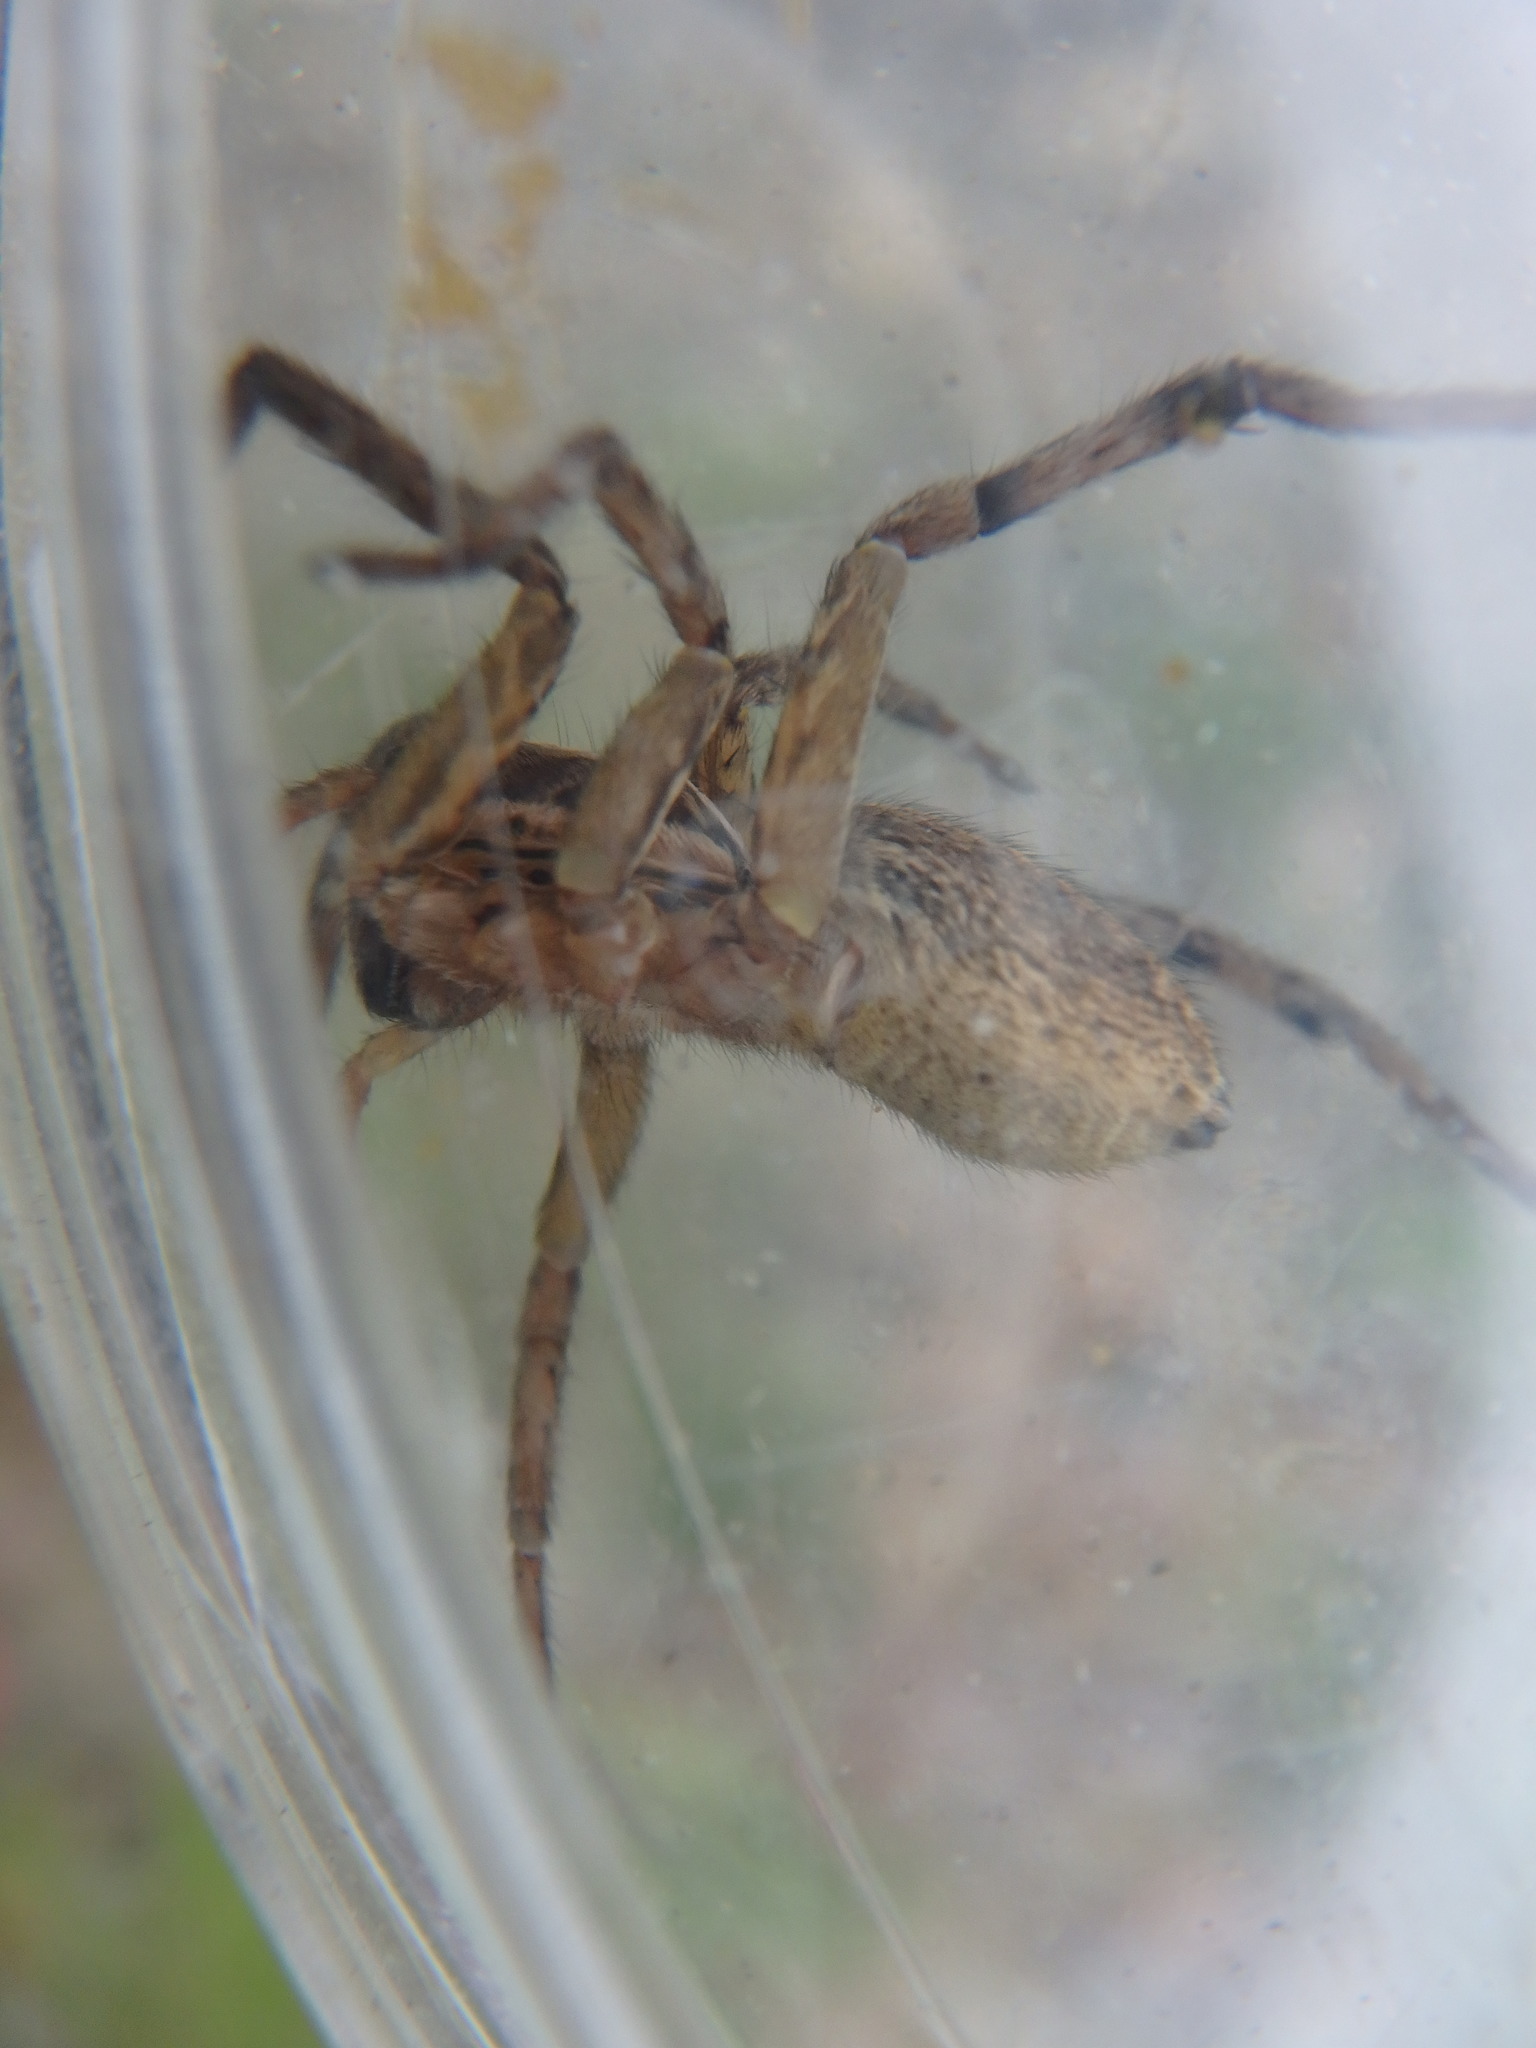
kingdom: Animalia
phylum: Arthropoda
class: Arachnida
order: Araneae
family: Lycosidae
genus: Hogna
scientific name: Hogna radiata
